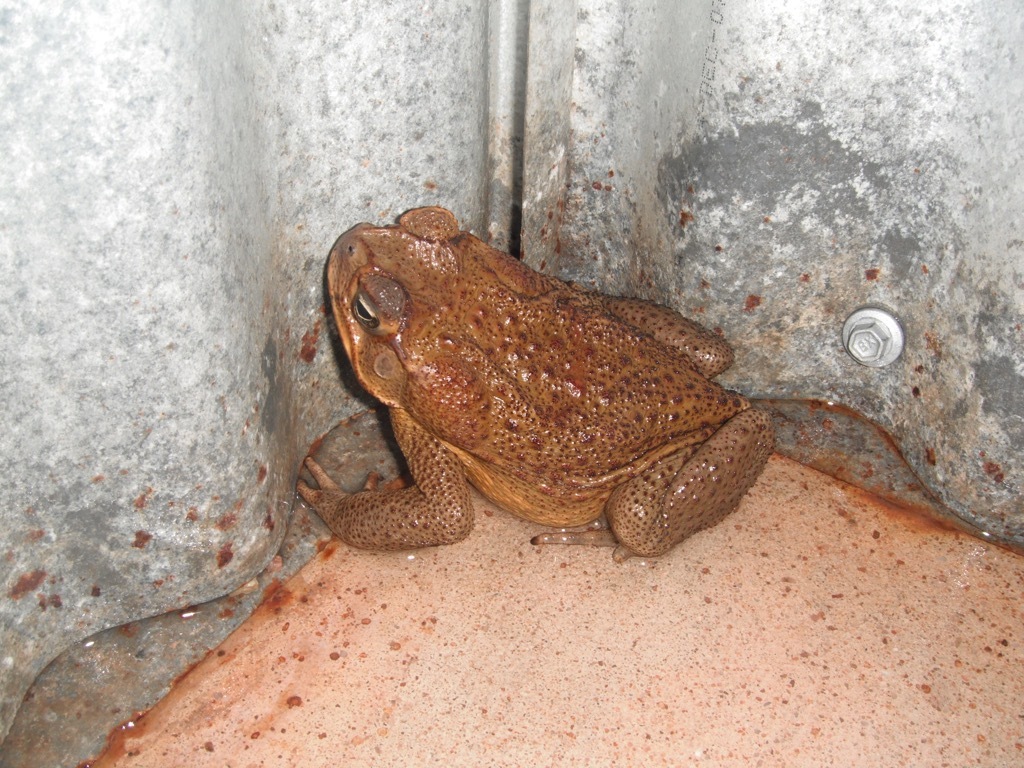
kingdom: Animalia
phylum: Chordata
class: Amphibia
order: Anura
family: Bufonidae
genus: Rhinella
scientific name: Rhinella marina
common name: Cane toad
